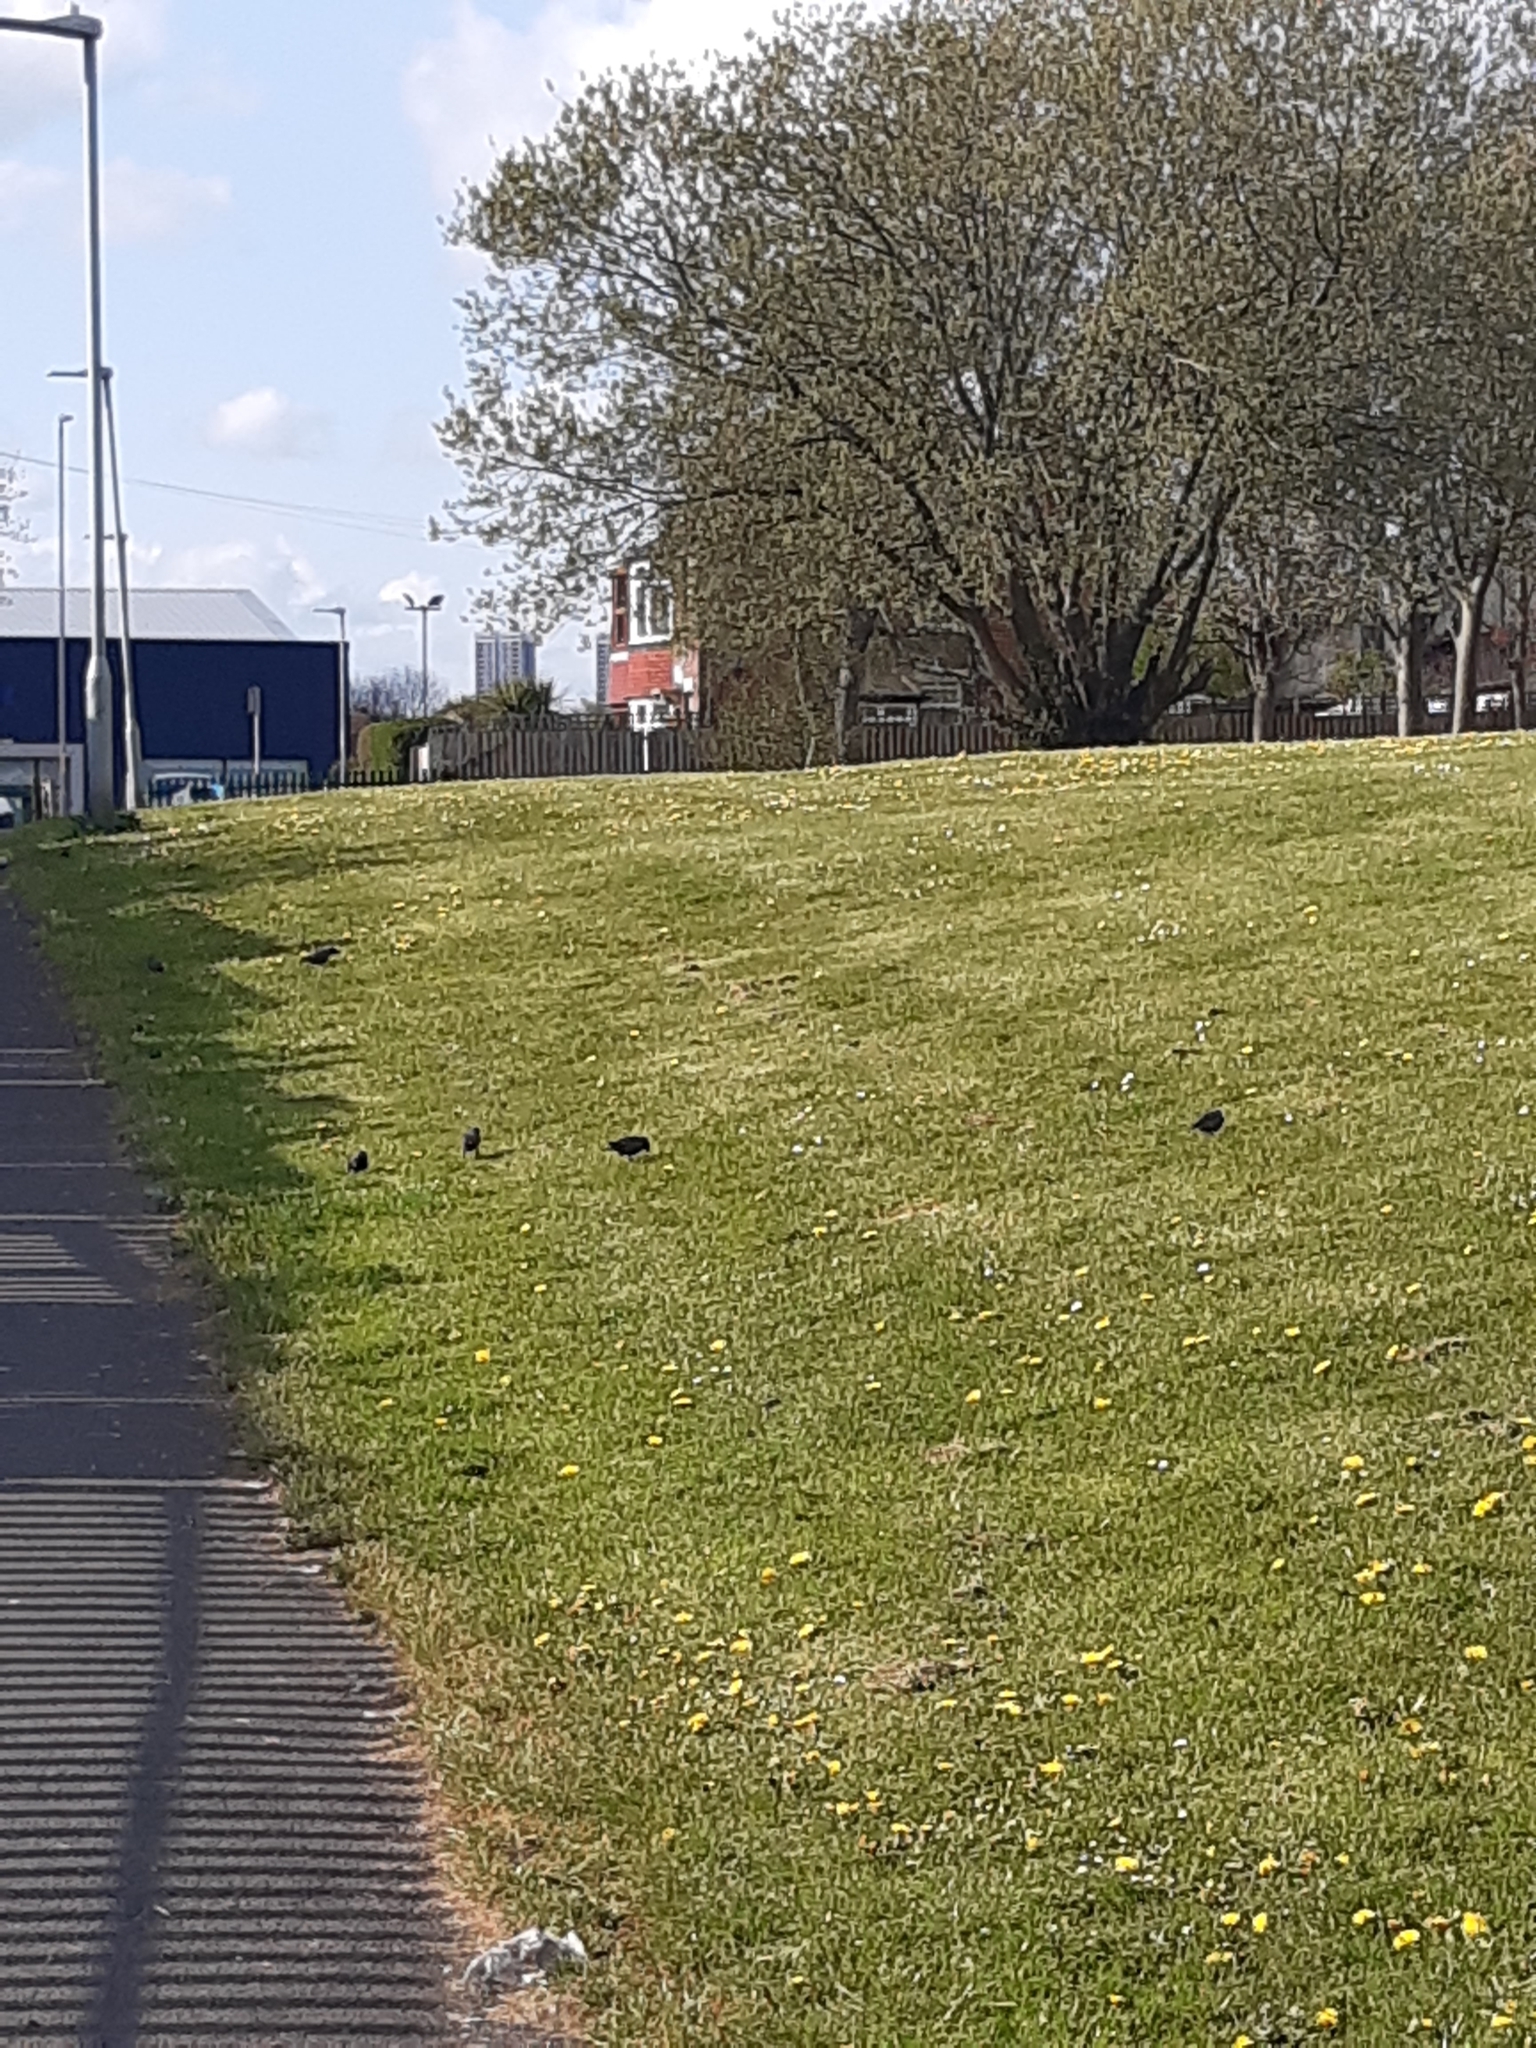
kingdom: Animalia
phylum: Chordata
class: Aves
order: Passeriformes
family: Sturnidae
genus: Sturnus
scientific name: Sturnus vulgaris
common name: Common starling
